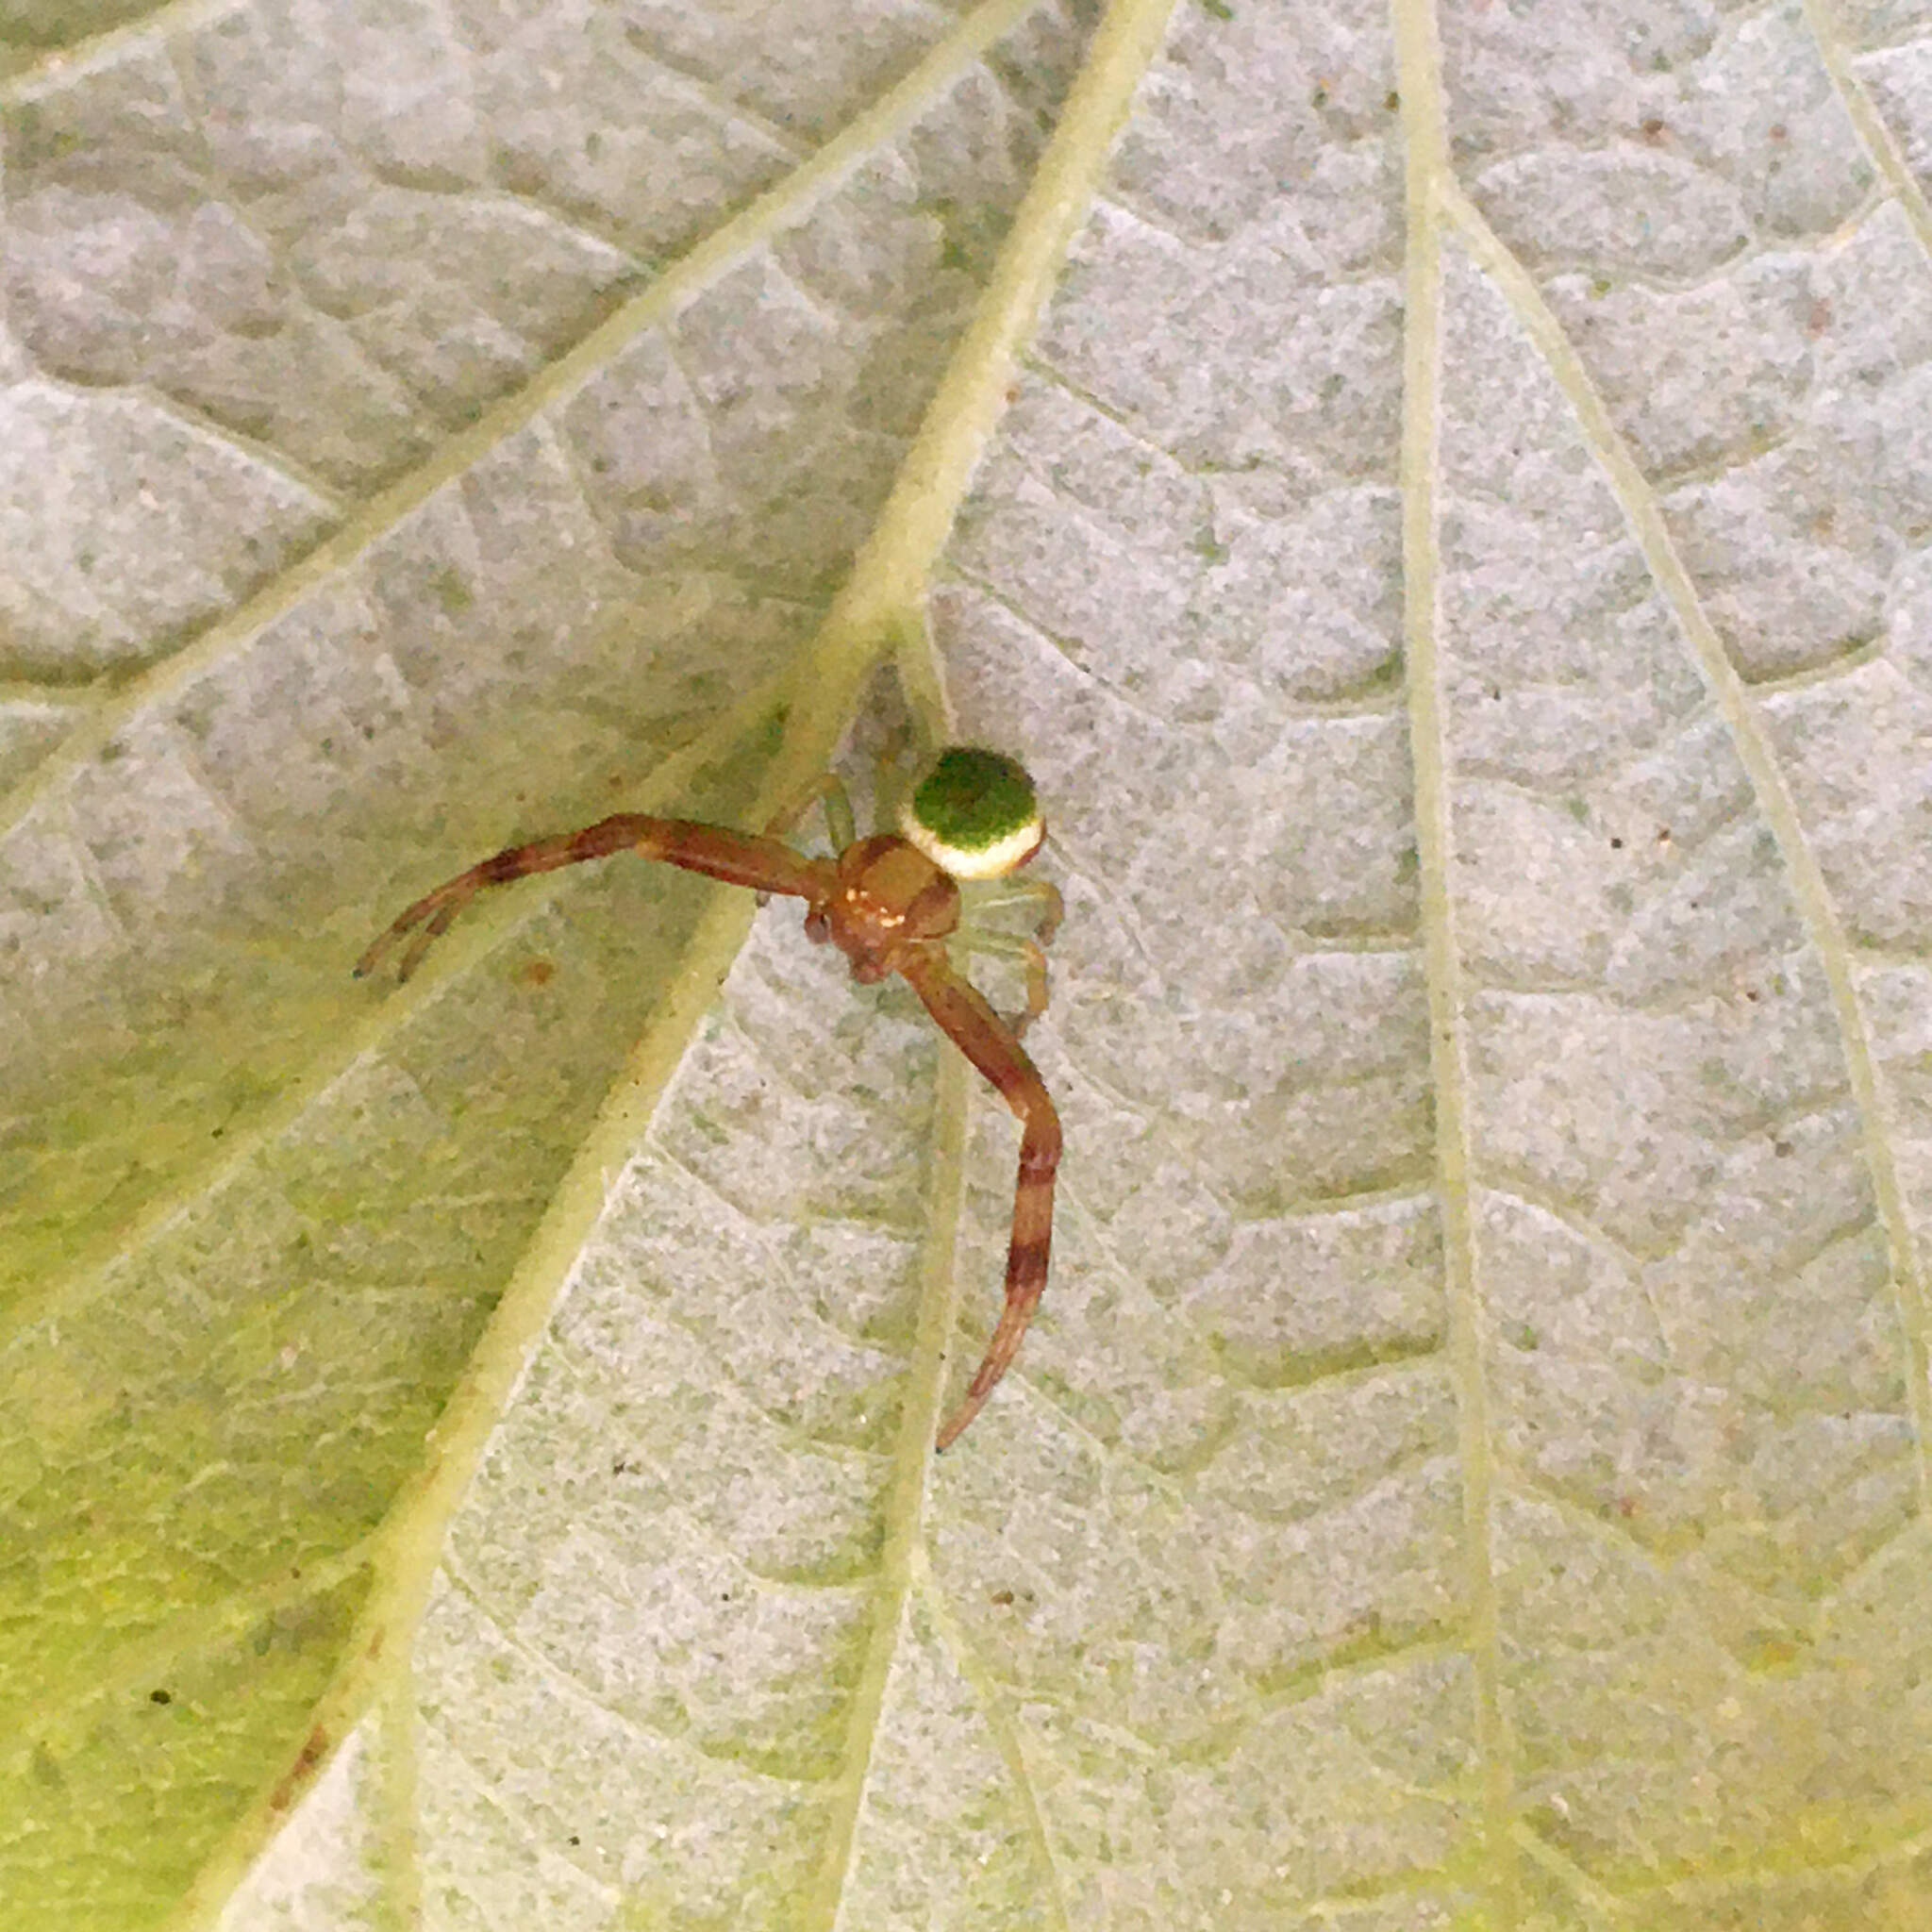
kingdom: Animalia
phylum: Arthropoda
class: Arachnida
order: Araneae
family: Thomisidae
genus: Ebrechtella
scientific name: Ebrechtella tricuspidata
